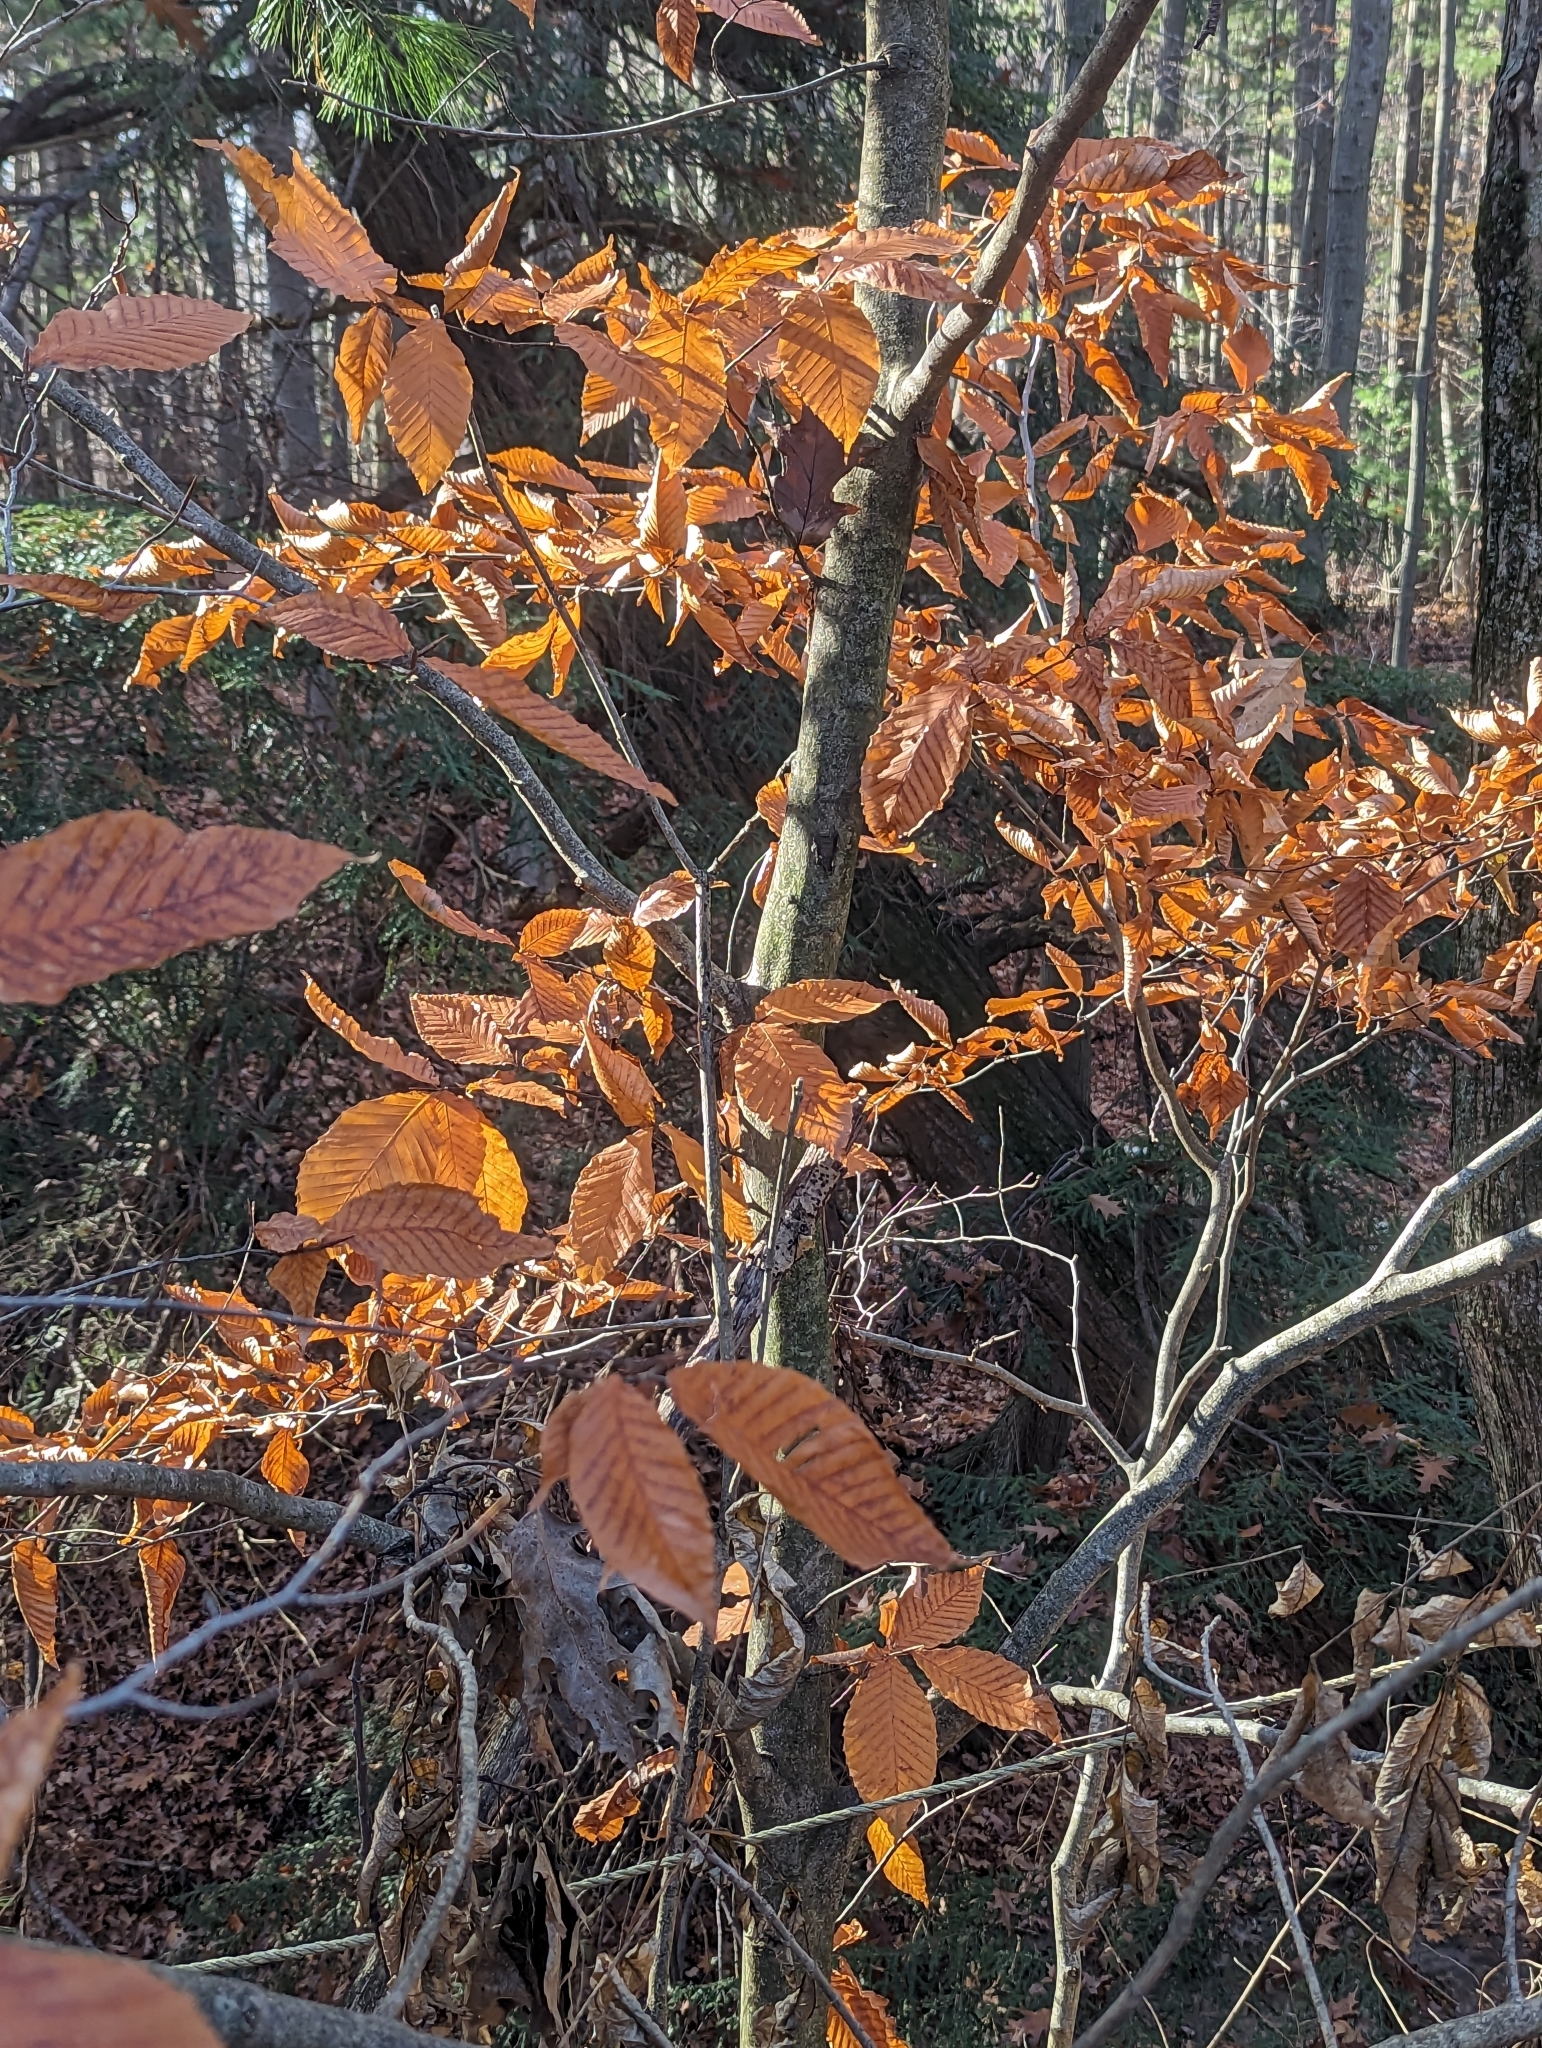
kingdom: Plantae
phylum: Tracheophyta
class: Magnoliopsida
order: Fagales
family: Fagaceae
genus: Fagus
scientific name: Fagus grandifolia
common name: American beech
